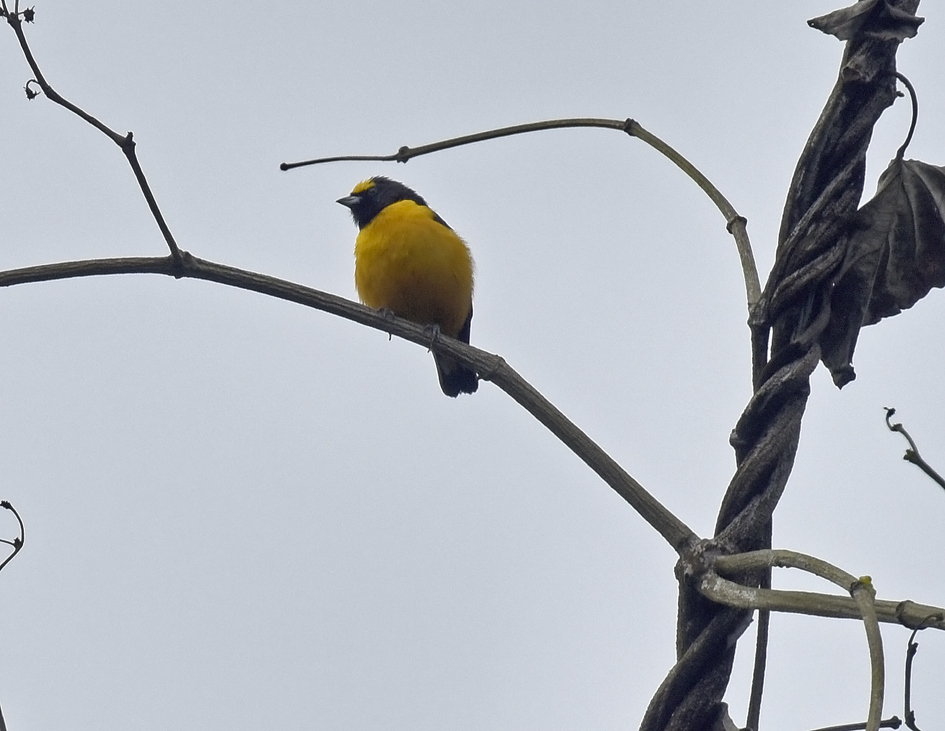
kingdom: Animalia
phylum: Chordata
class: Aves
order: Passeriformes
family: Fringillidae
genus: Euphonia
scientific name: Euphonia finschi
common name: Finsch's euphonia
